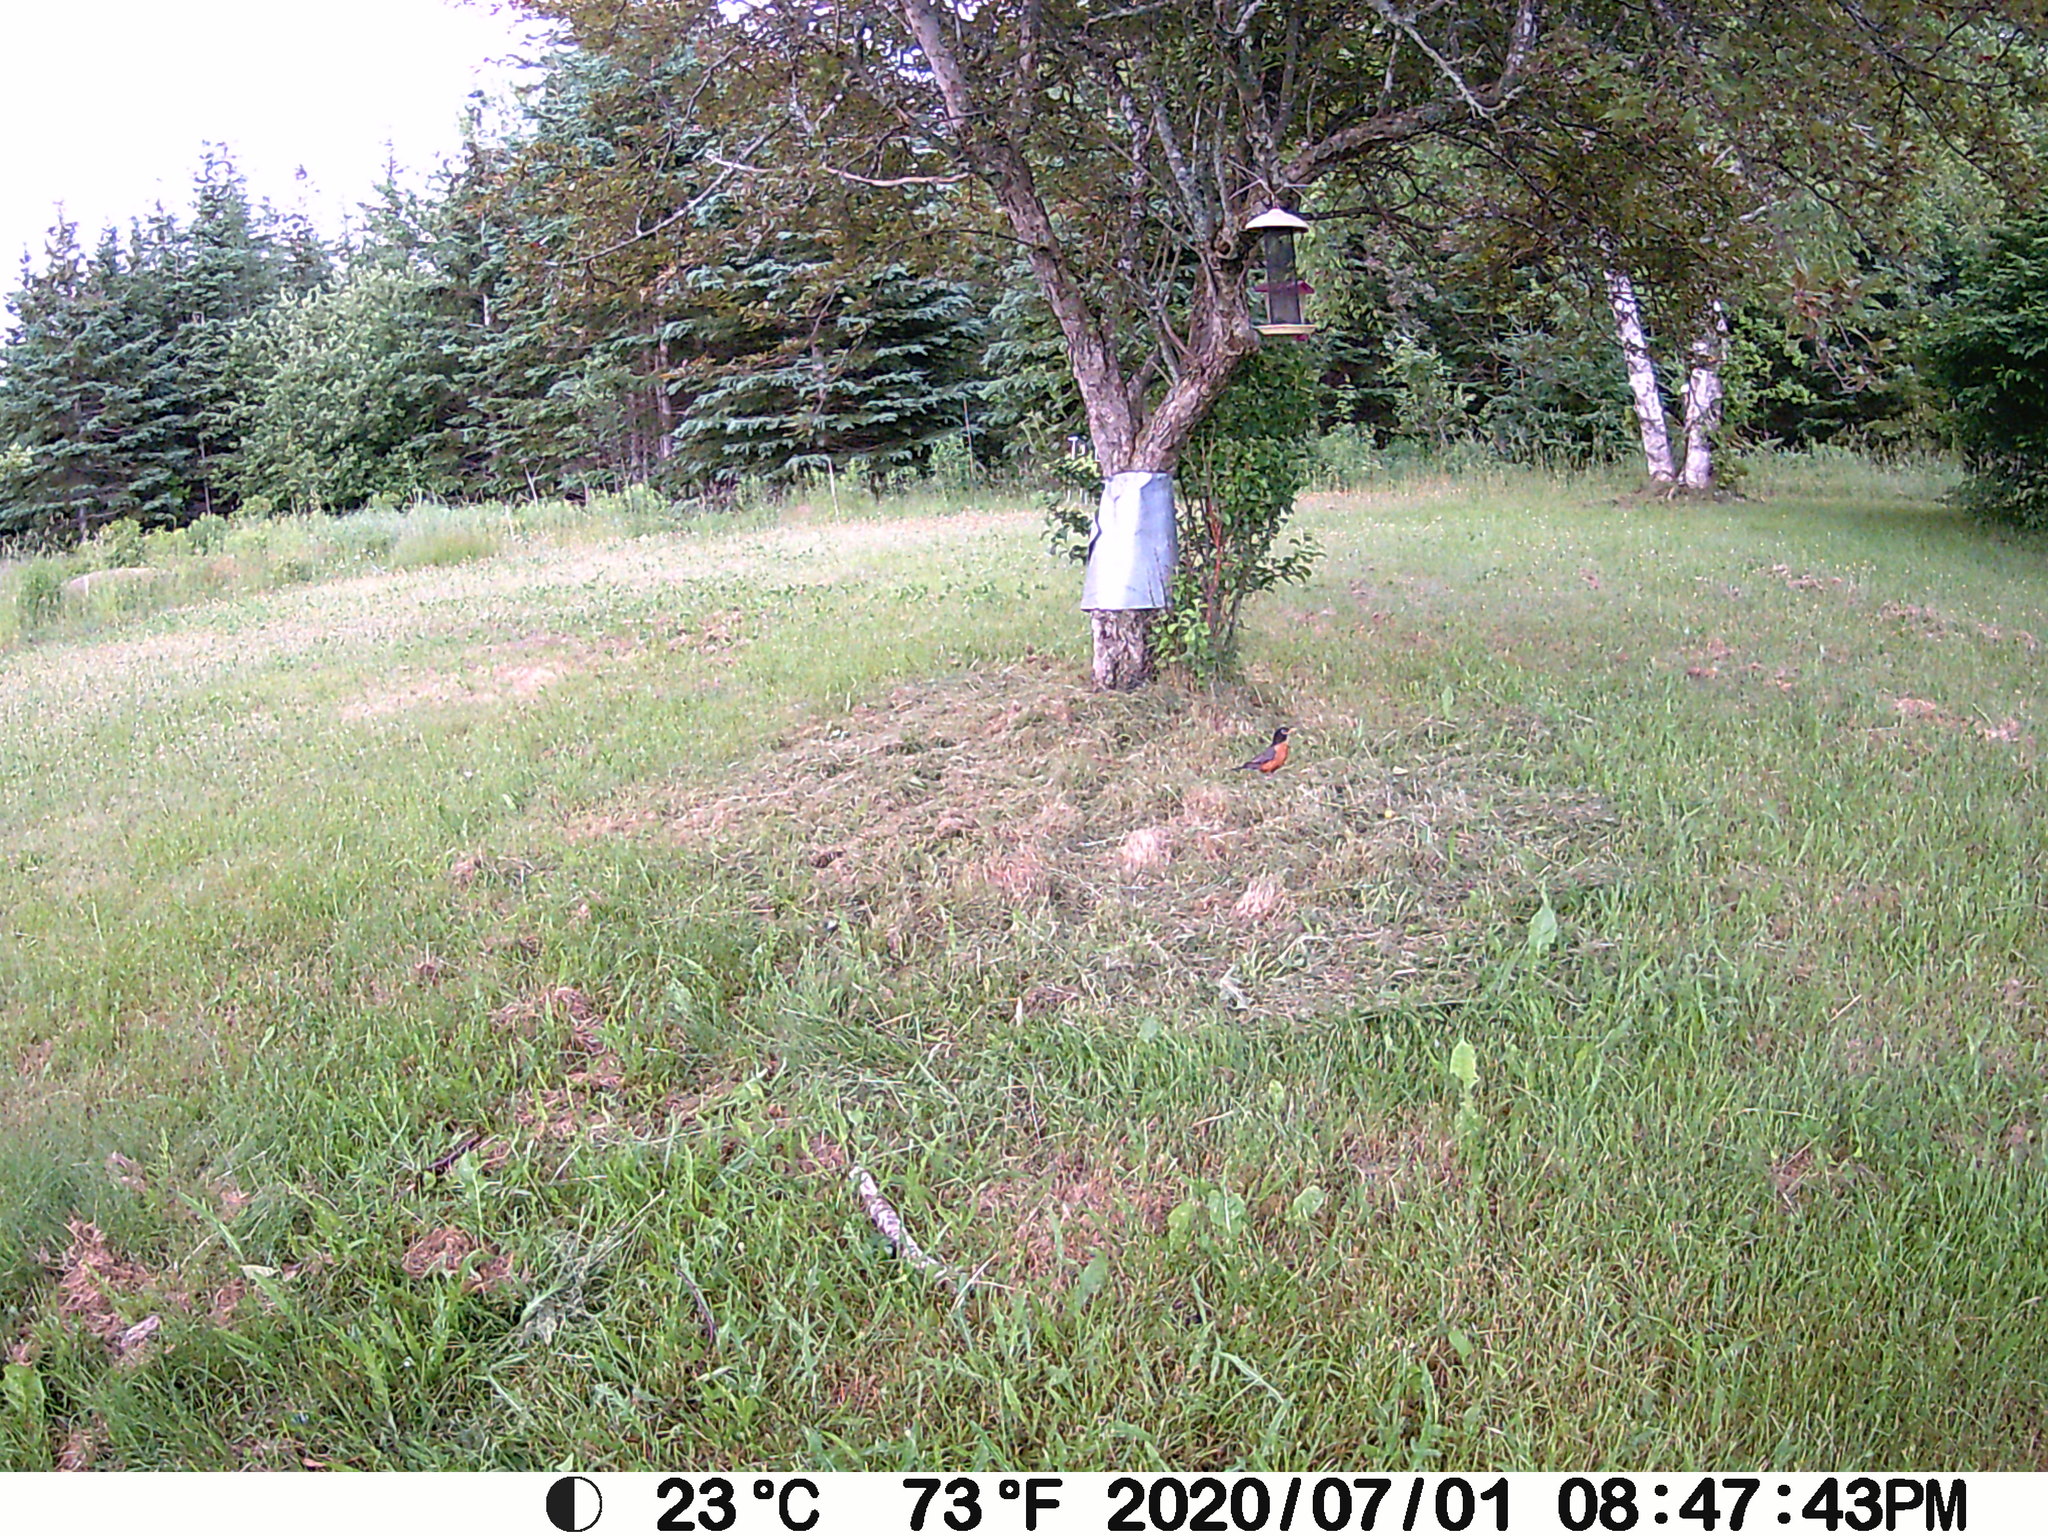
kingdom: Animalia
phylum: Chordata
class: Aves
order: Passeriformes
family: Turdidae
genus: Turdus
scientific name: Turdus migratorius
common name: American robin
